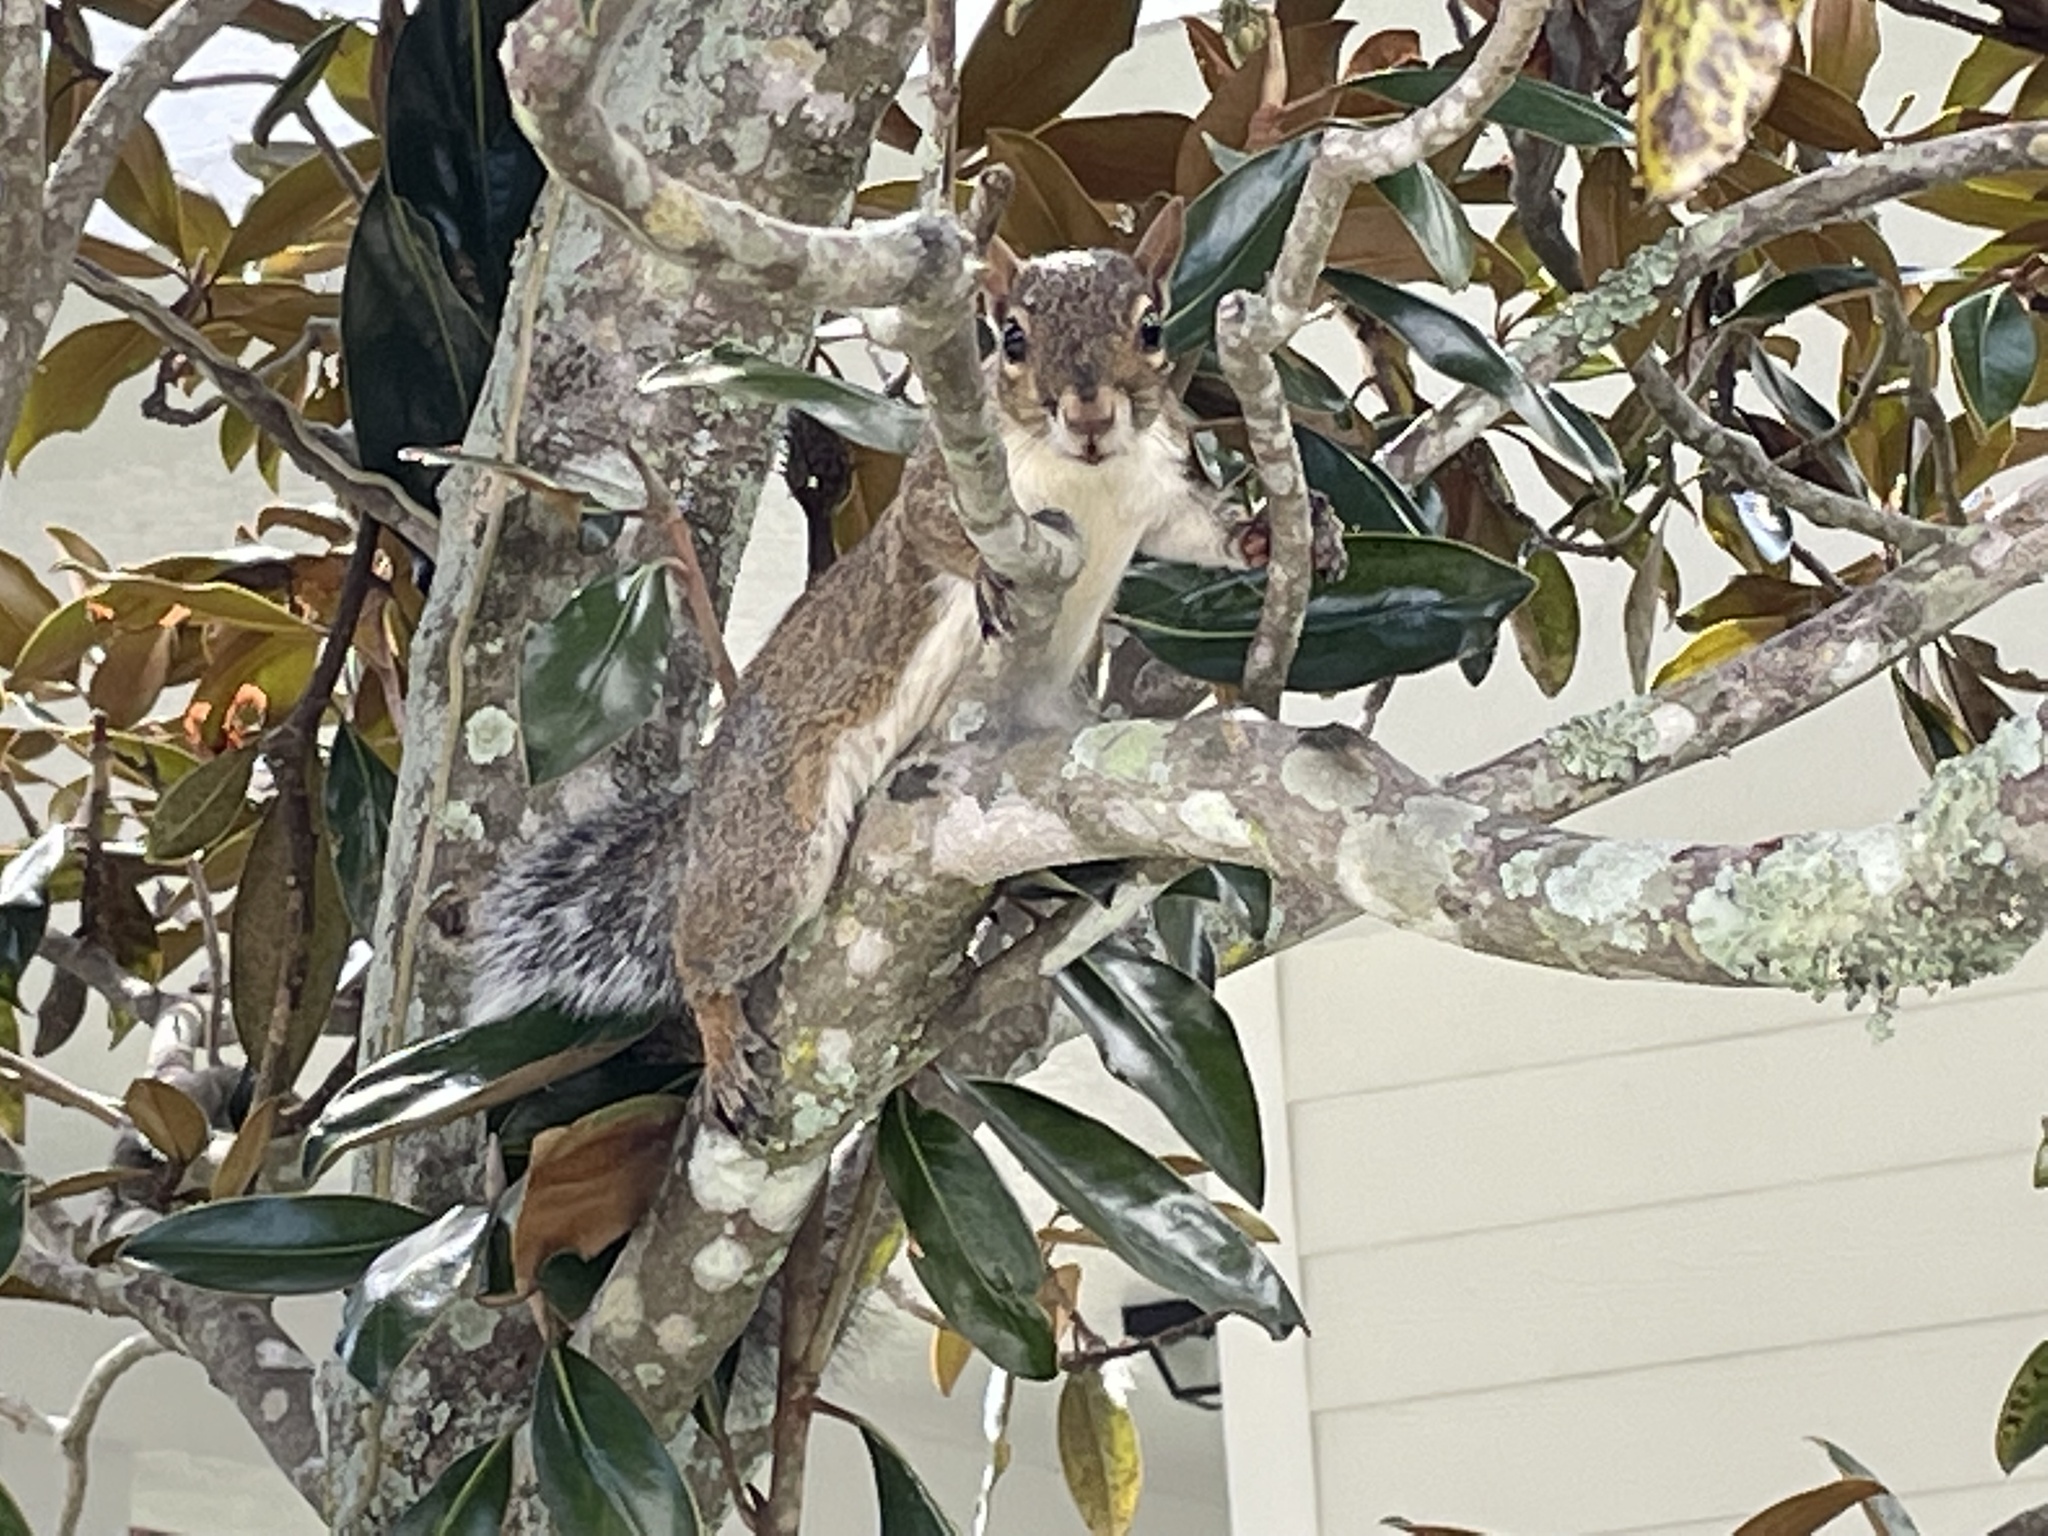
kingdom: Animalia
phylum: Chordata
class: Mammalia
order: Rodentia
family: Sciuridae
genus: Sciurus
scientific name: Sciurus carolinensis
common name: Eastern gray squirrel
